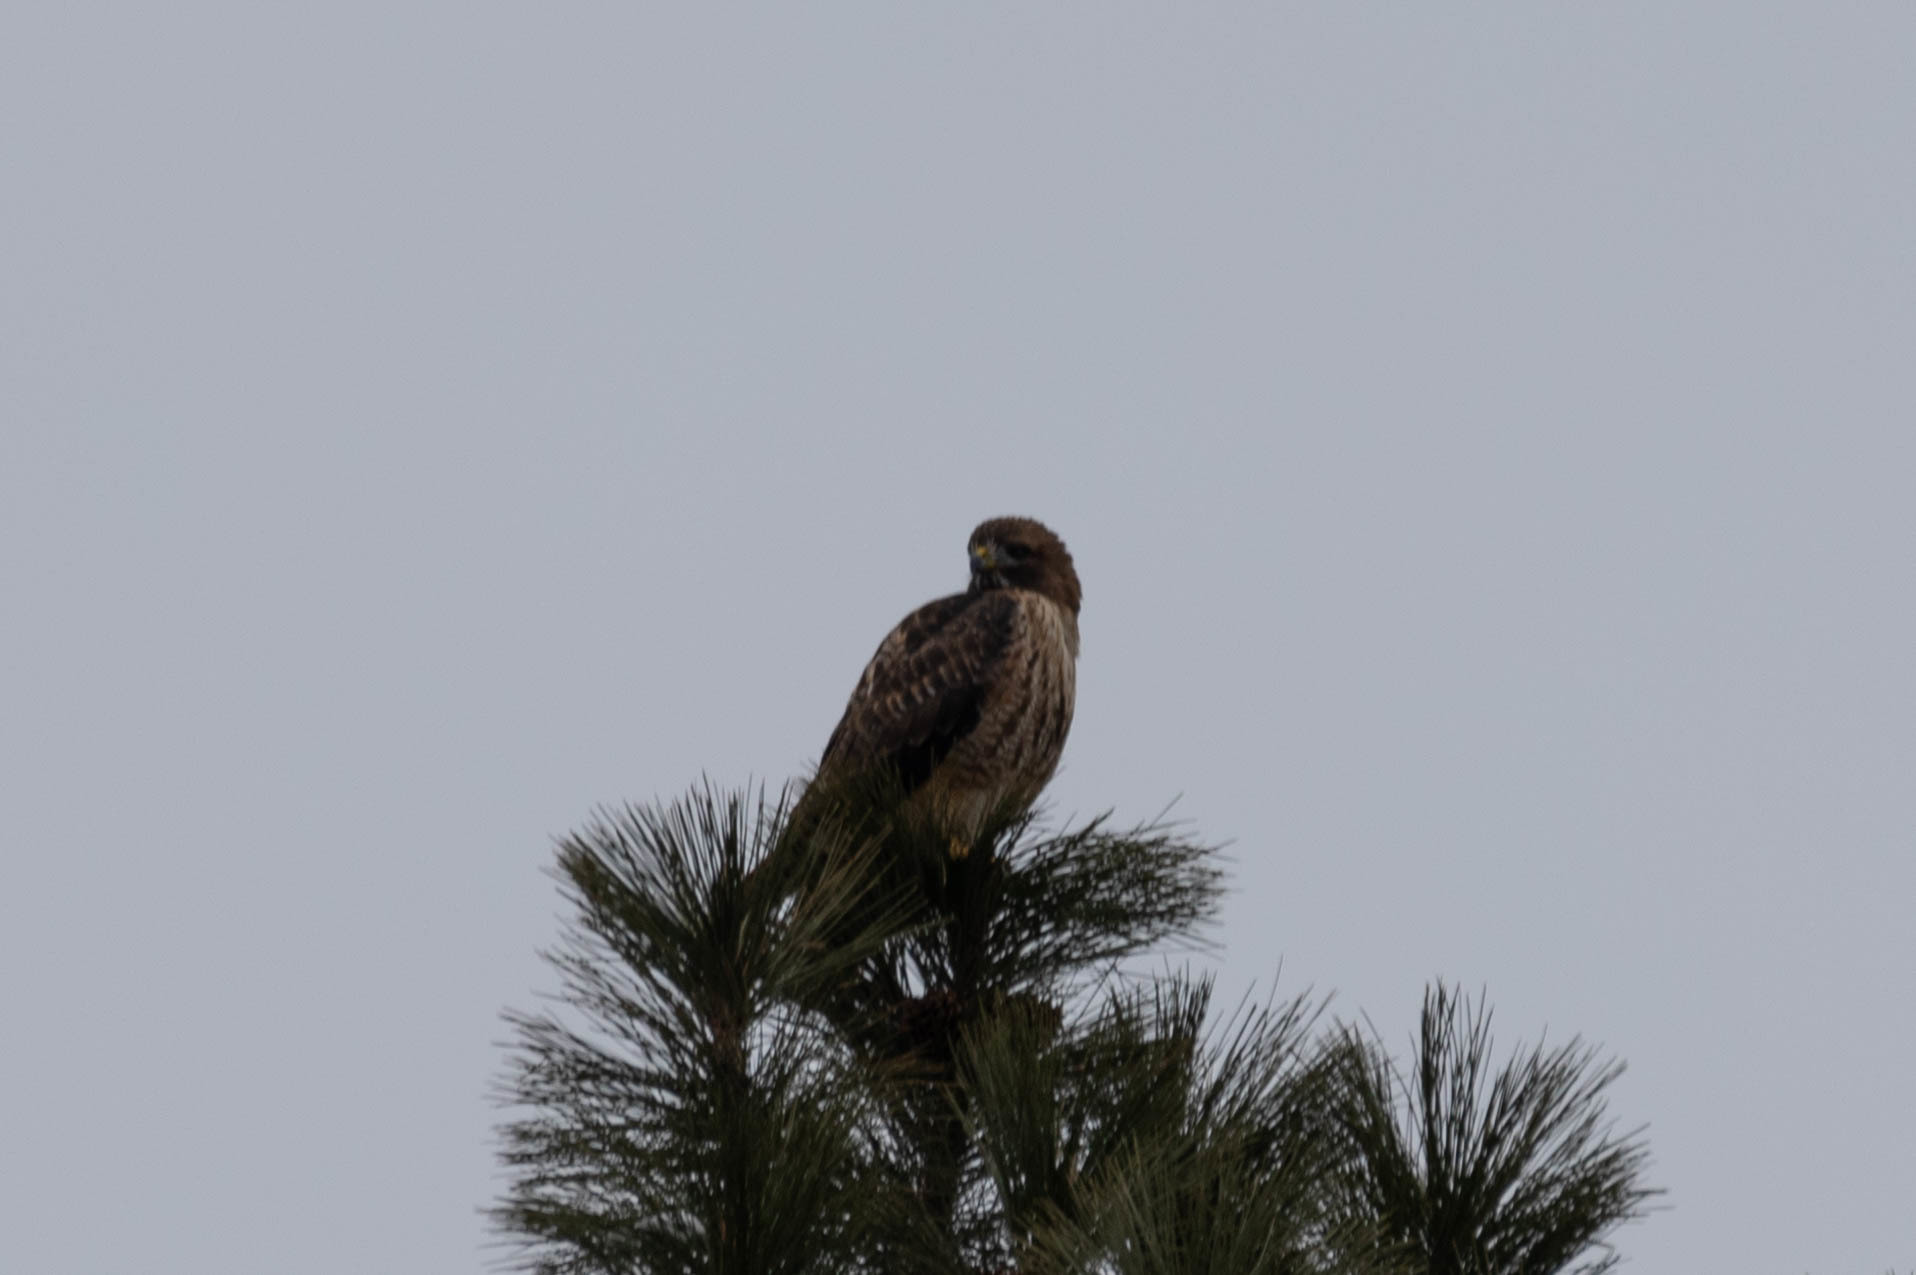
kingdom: Animalia
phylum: Chordata
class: Aves
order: Accipitriformes
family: Accipitridae
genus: Buteo
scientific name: Buteo jamaicensis
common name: Red-tailed hawk
